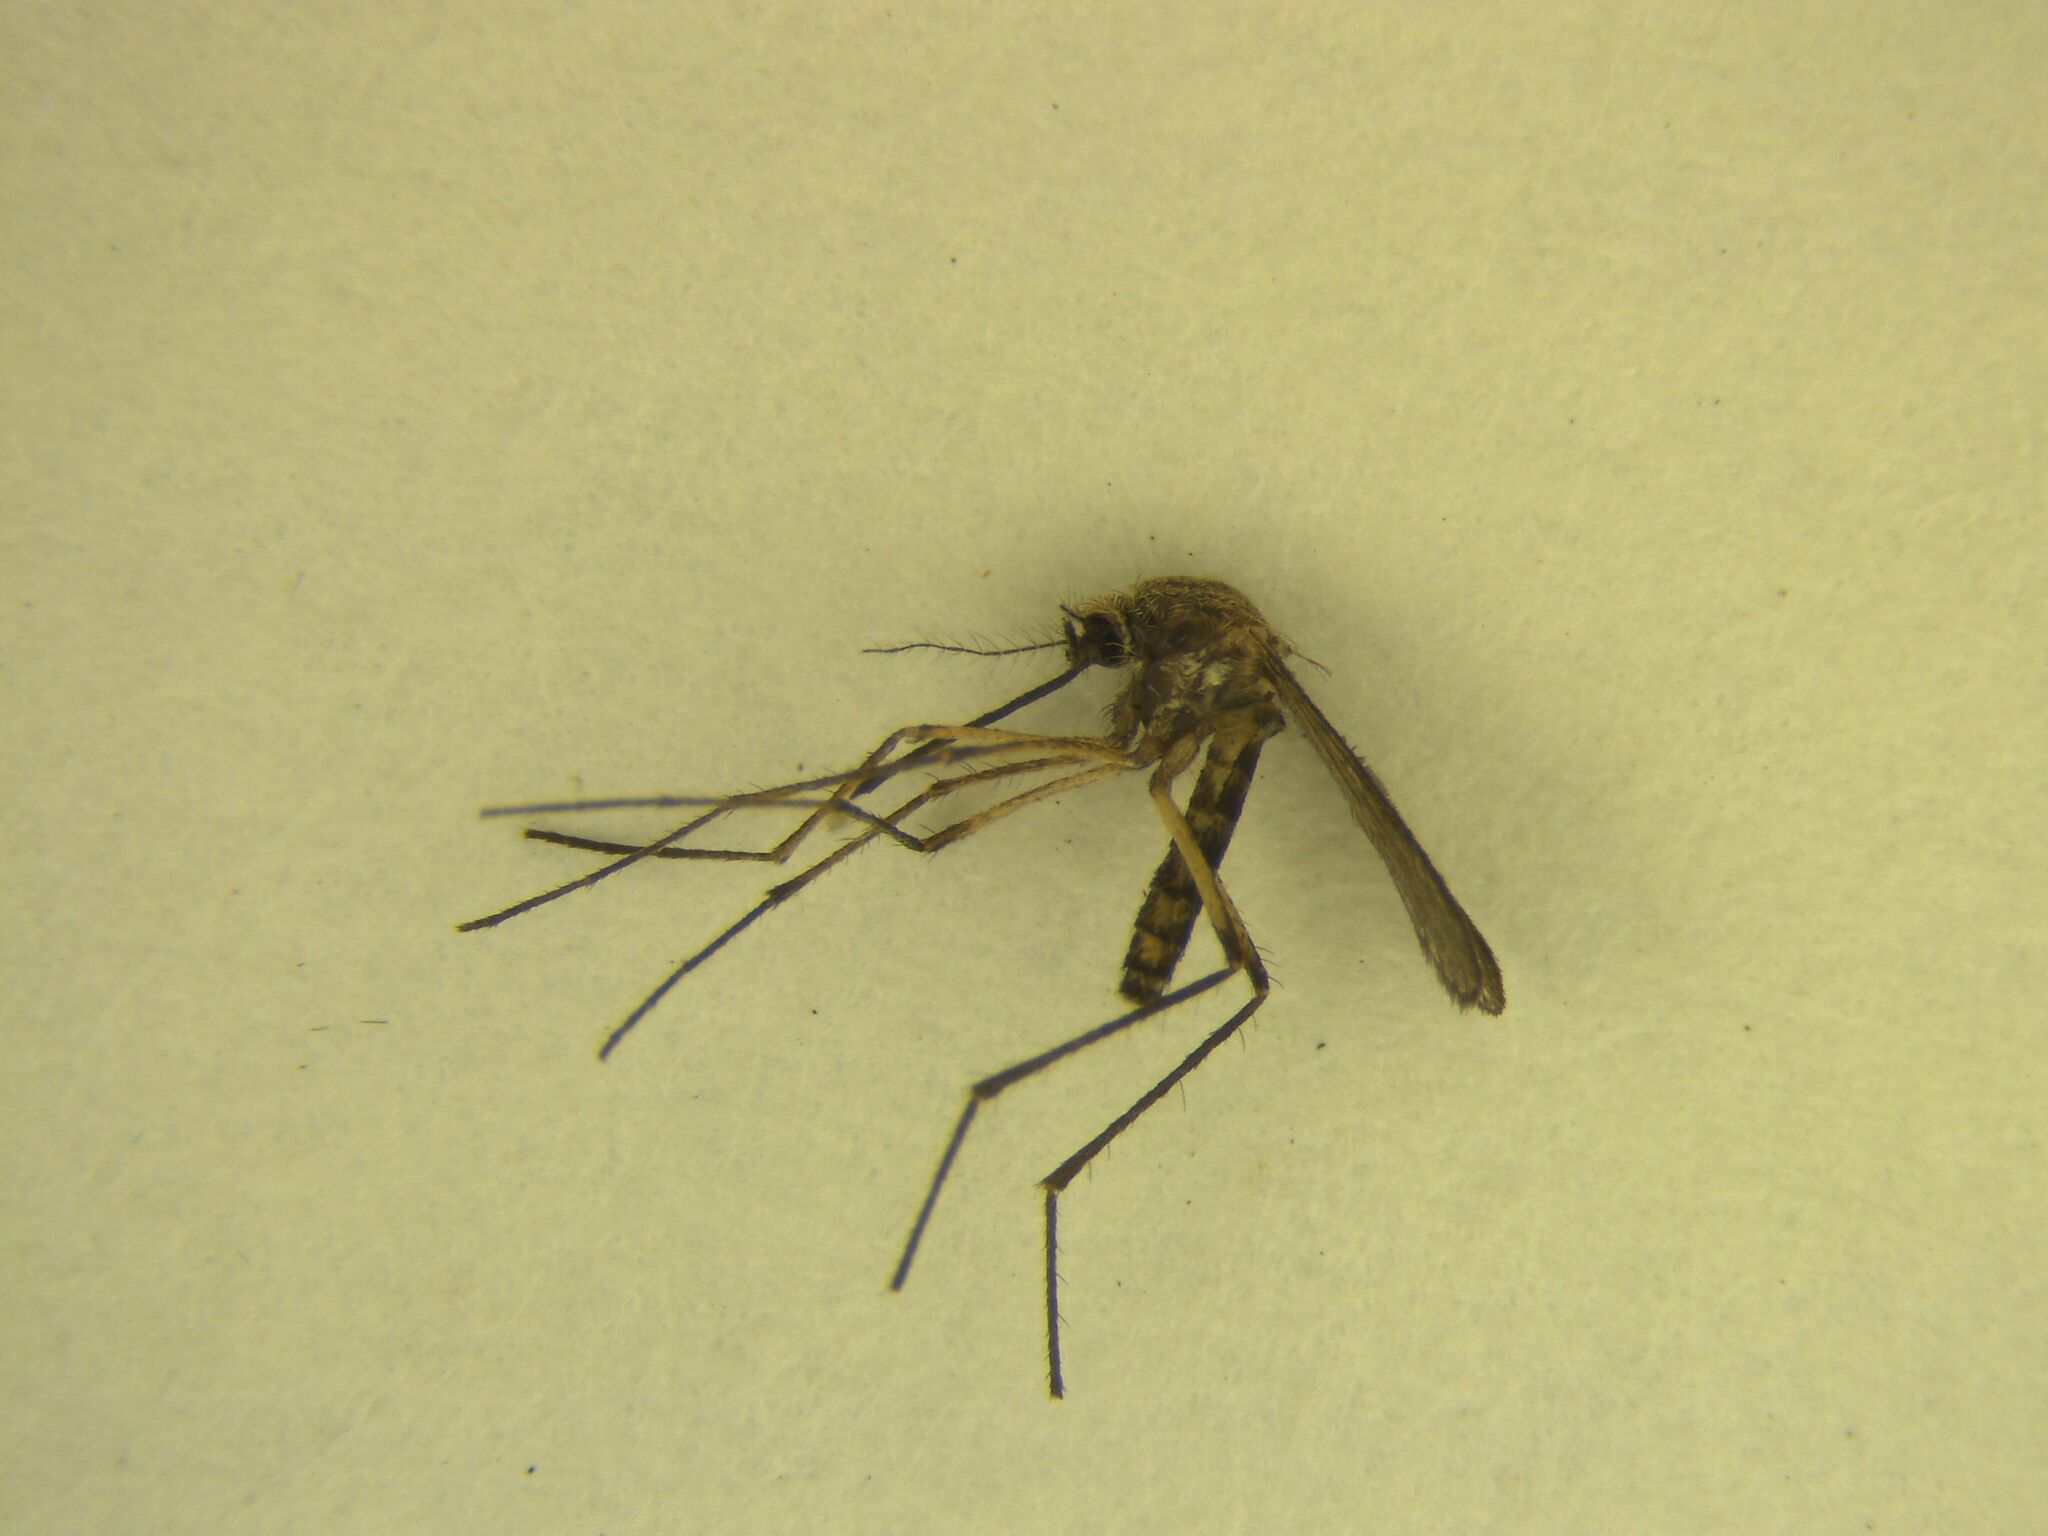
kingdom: Animalia
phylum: Arthropoda
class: Insecta
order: Diptera
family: Culicidae
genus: Coquillettidia
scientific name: Coquillettidia iracunda
